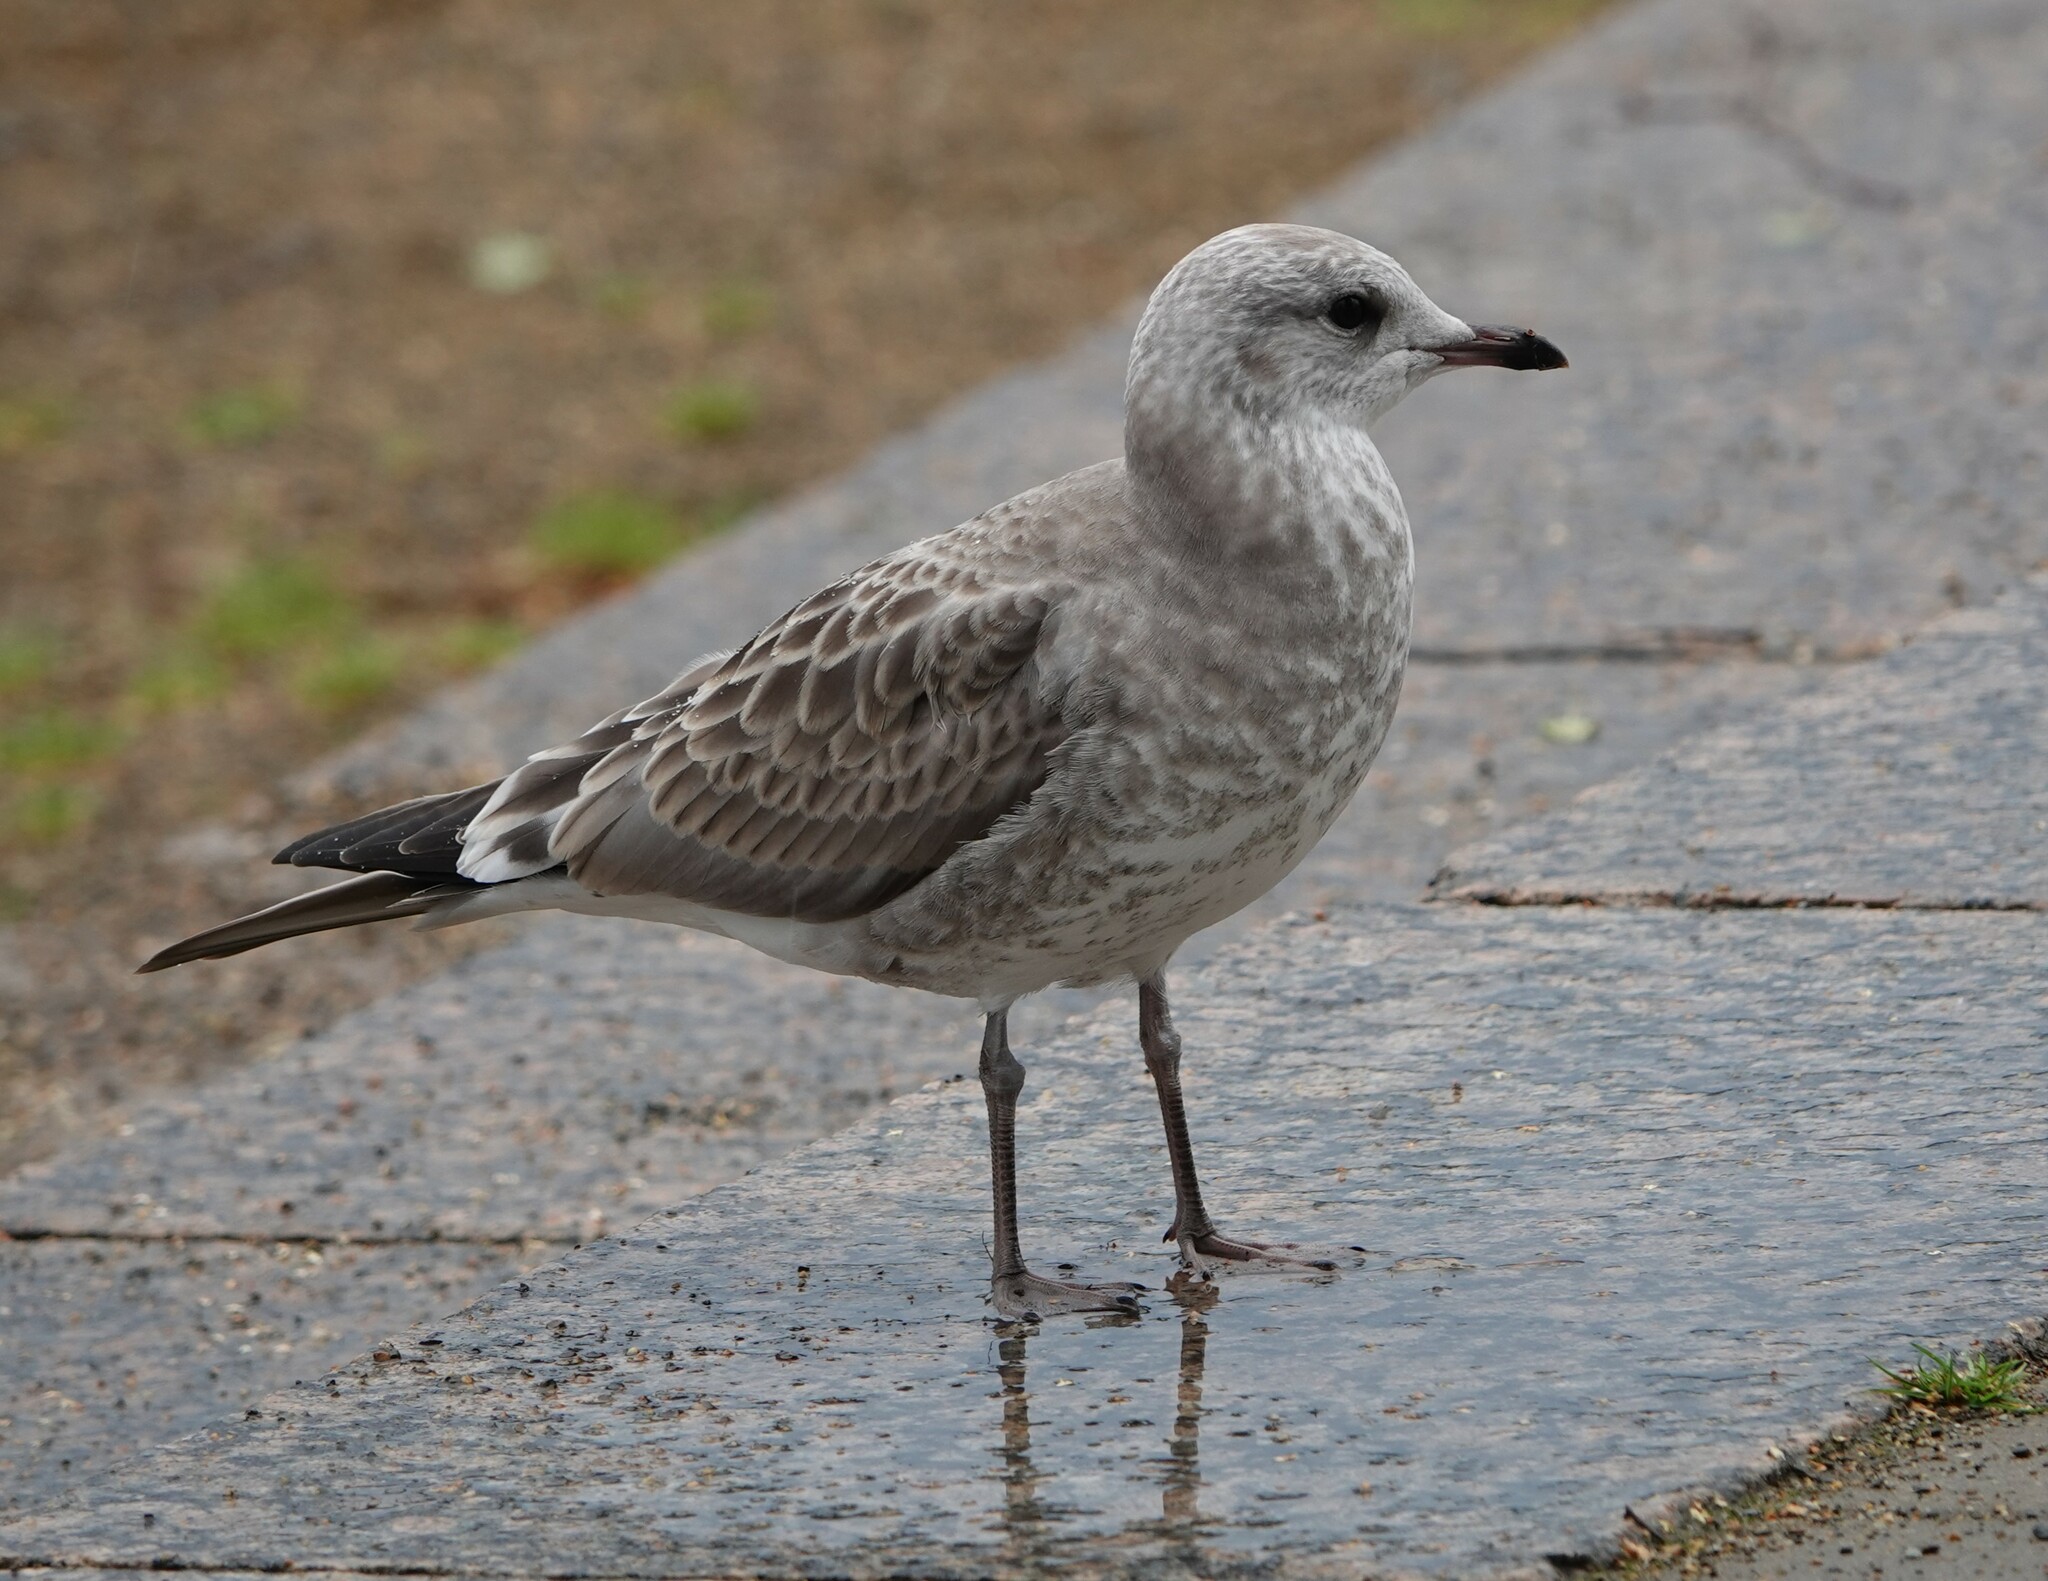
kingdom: Animalia
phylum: Chordata
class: Aves
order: Charadriiformes
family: Laridae
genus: Larus
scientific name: Larus canus
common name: Mew gull
